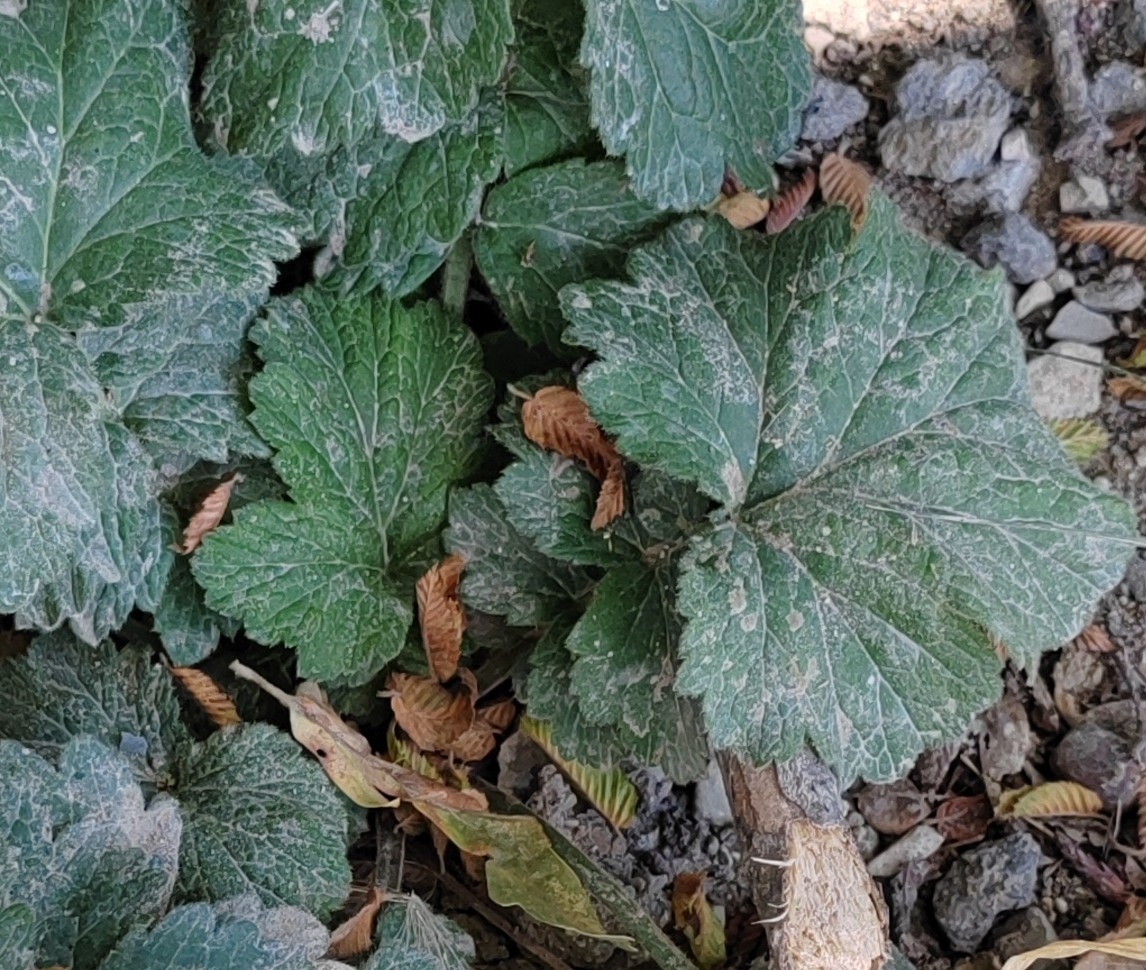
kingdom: Plantae
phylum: Tracheophyta
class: Magnoliopsida
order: Rosales
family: Rosaceae
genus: Geum
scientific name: Geum urbanum
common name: Wood avens
